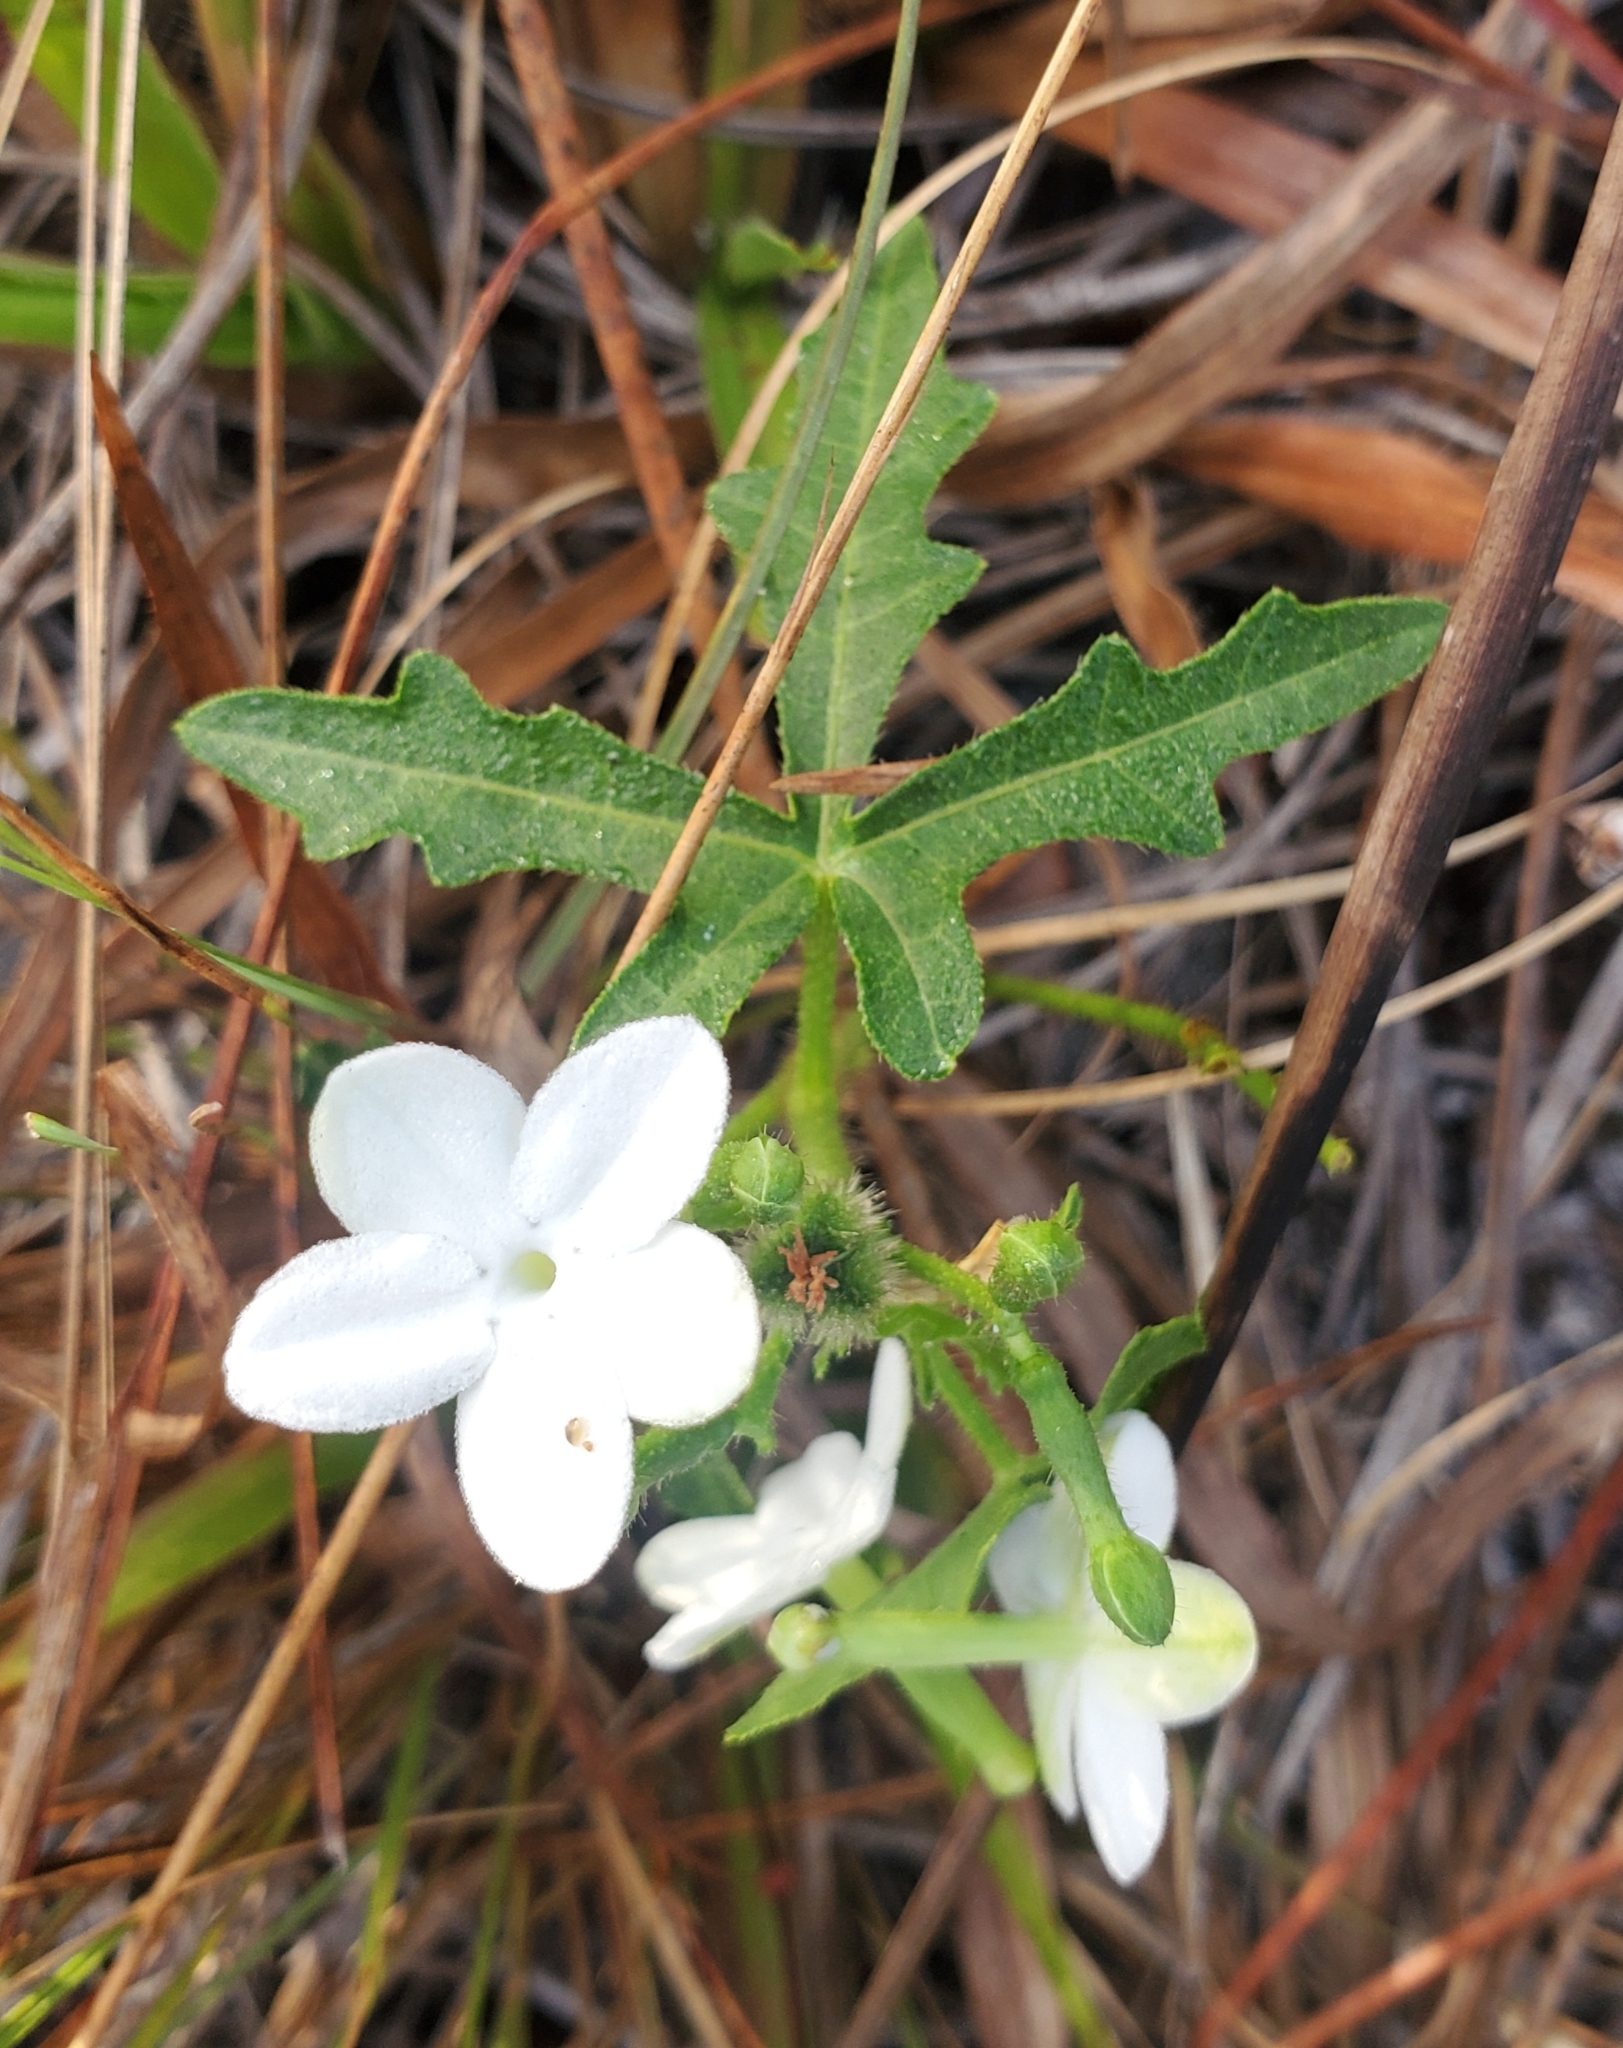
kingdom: Plantae
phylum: Tracheophyta
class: Magnoliopsida
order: Malpighiales
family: Euphorbiaceae
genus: Cnidoscolus
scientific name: Cnidoscolus stimulosus
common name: Bull-nettle
